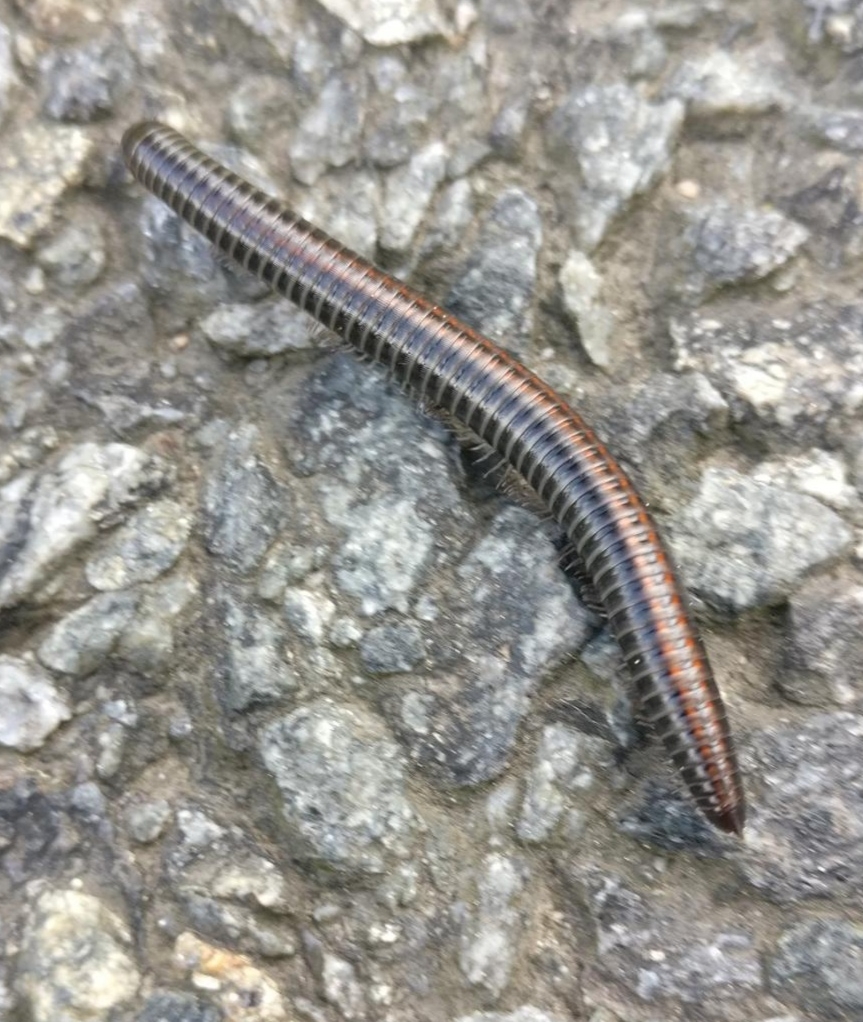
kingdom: Animalia
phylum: Arthropoda
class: Diplopoda
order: Julida
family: Julidae
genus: Ommatoiulus
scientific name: Ommatoiulus sabulosus
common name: Striped millipede
